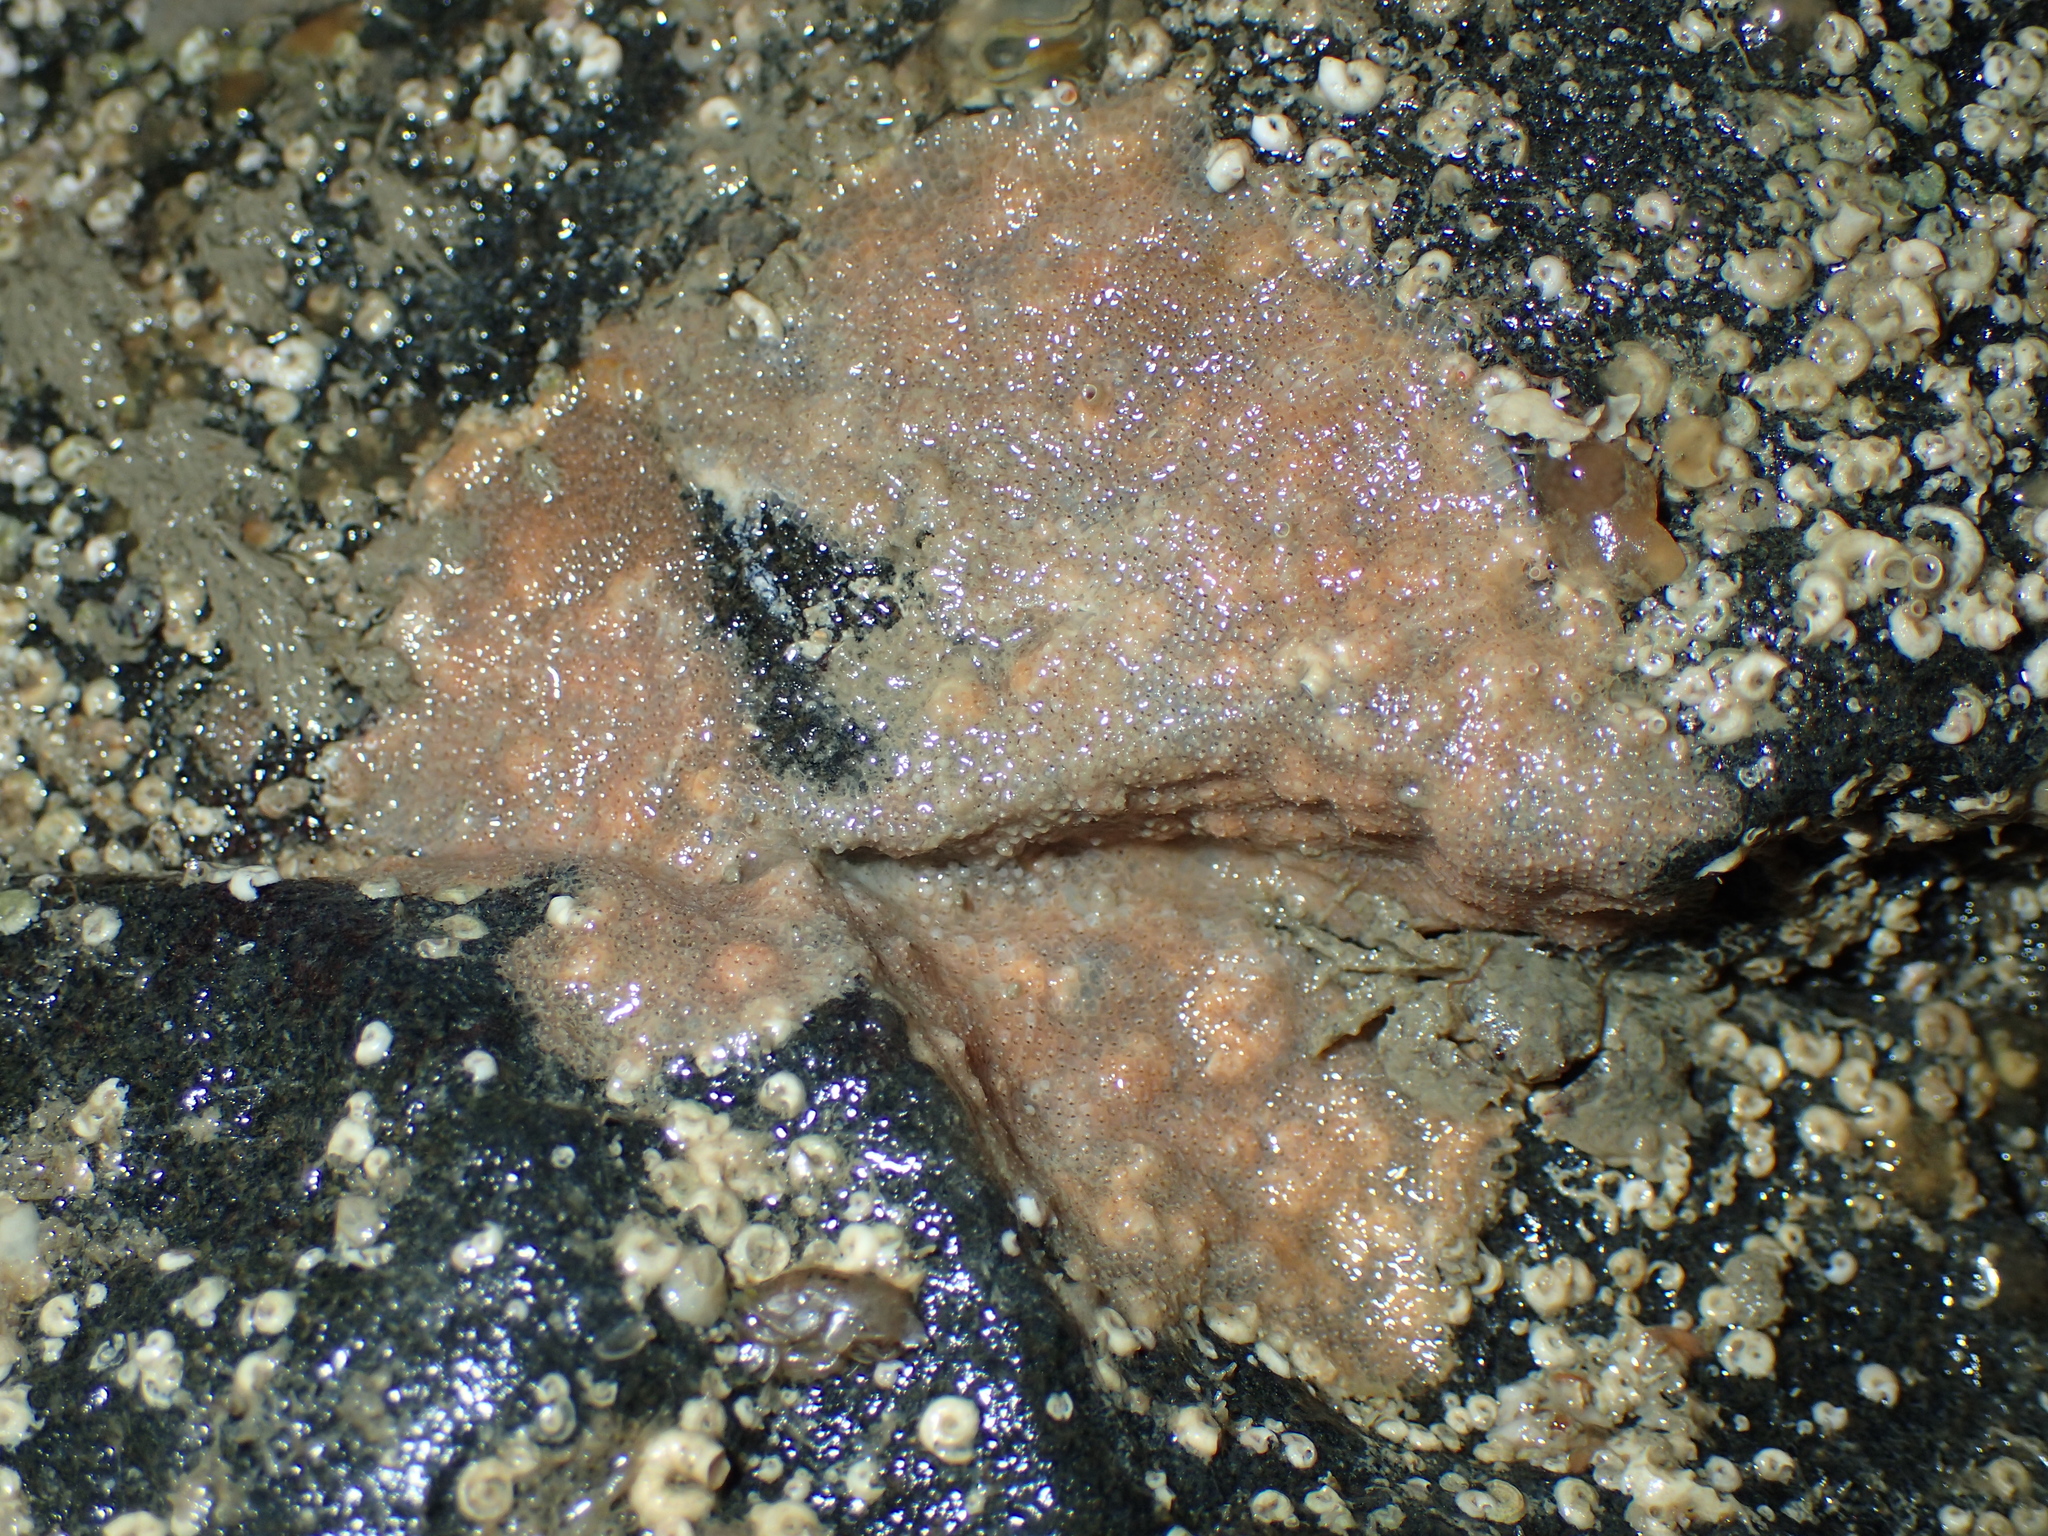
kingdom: Animalia
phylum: Bryozoa
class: Gymnolaemata
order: Cheilostomatida
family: Schizoporellidae
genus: Schizoporella
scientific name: Schizoporella unicornis
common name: Single horn bryozoan
